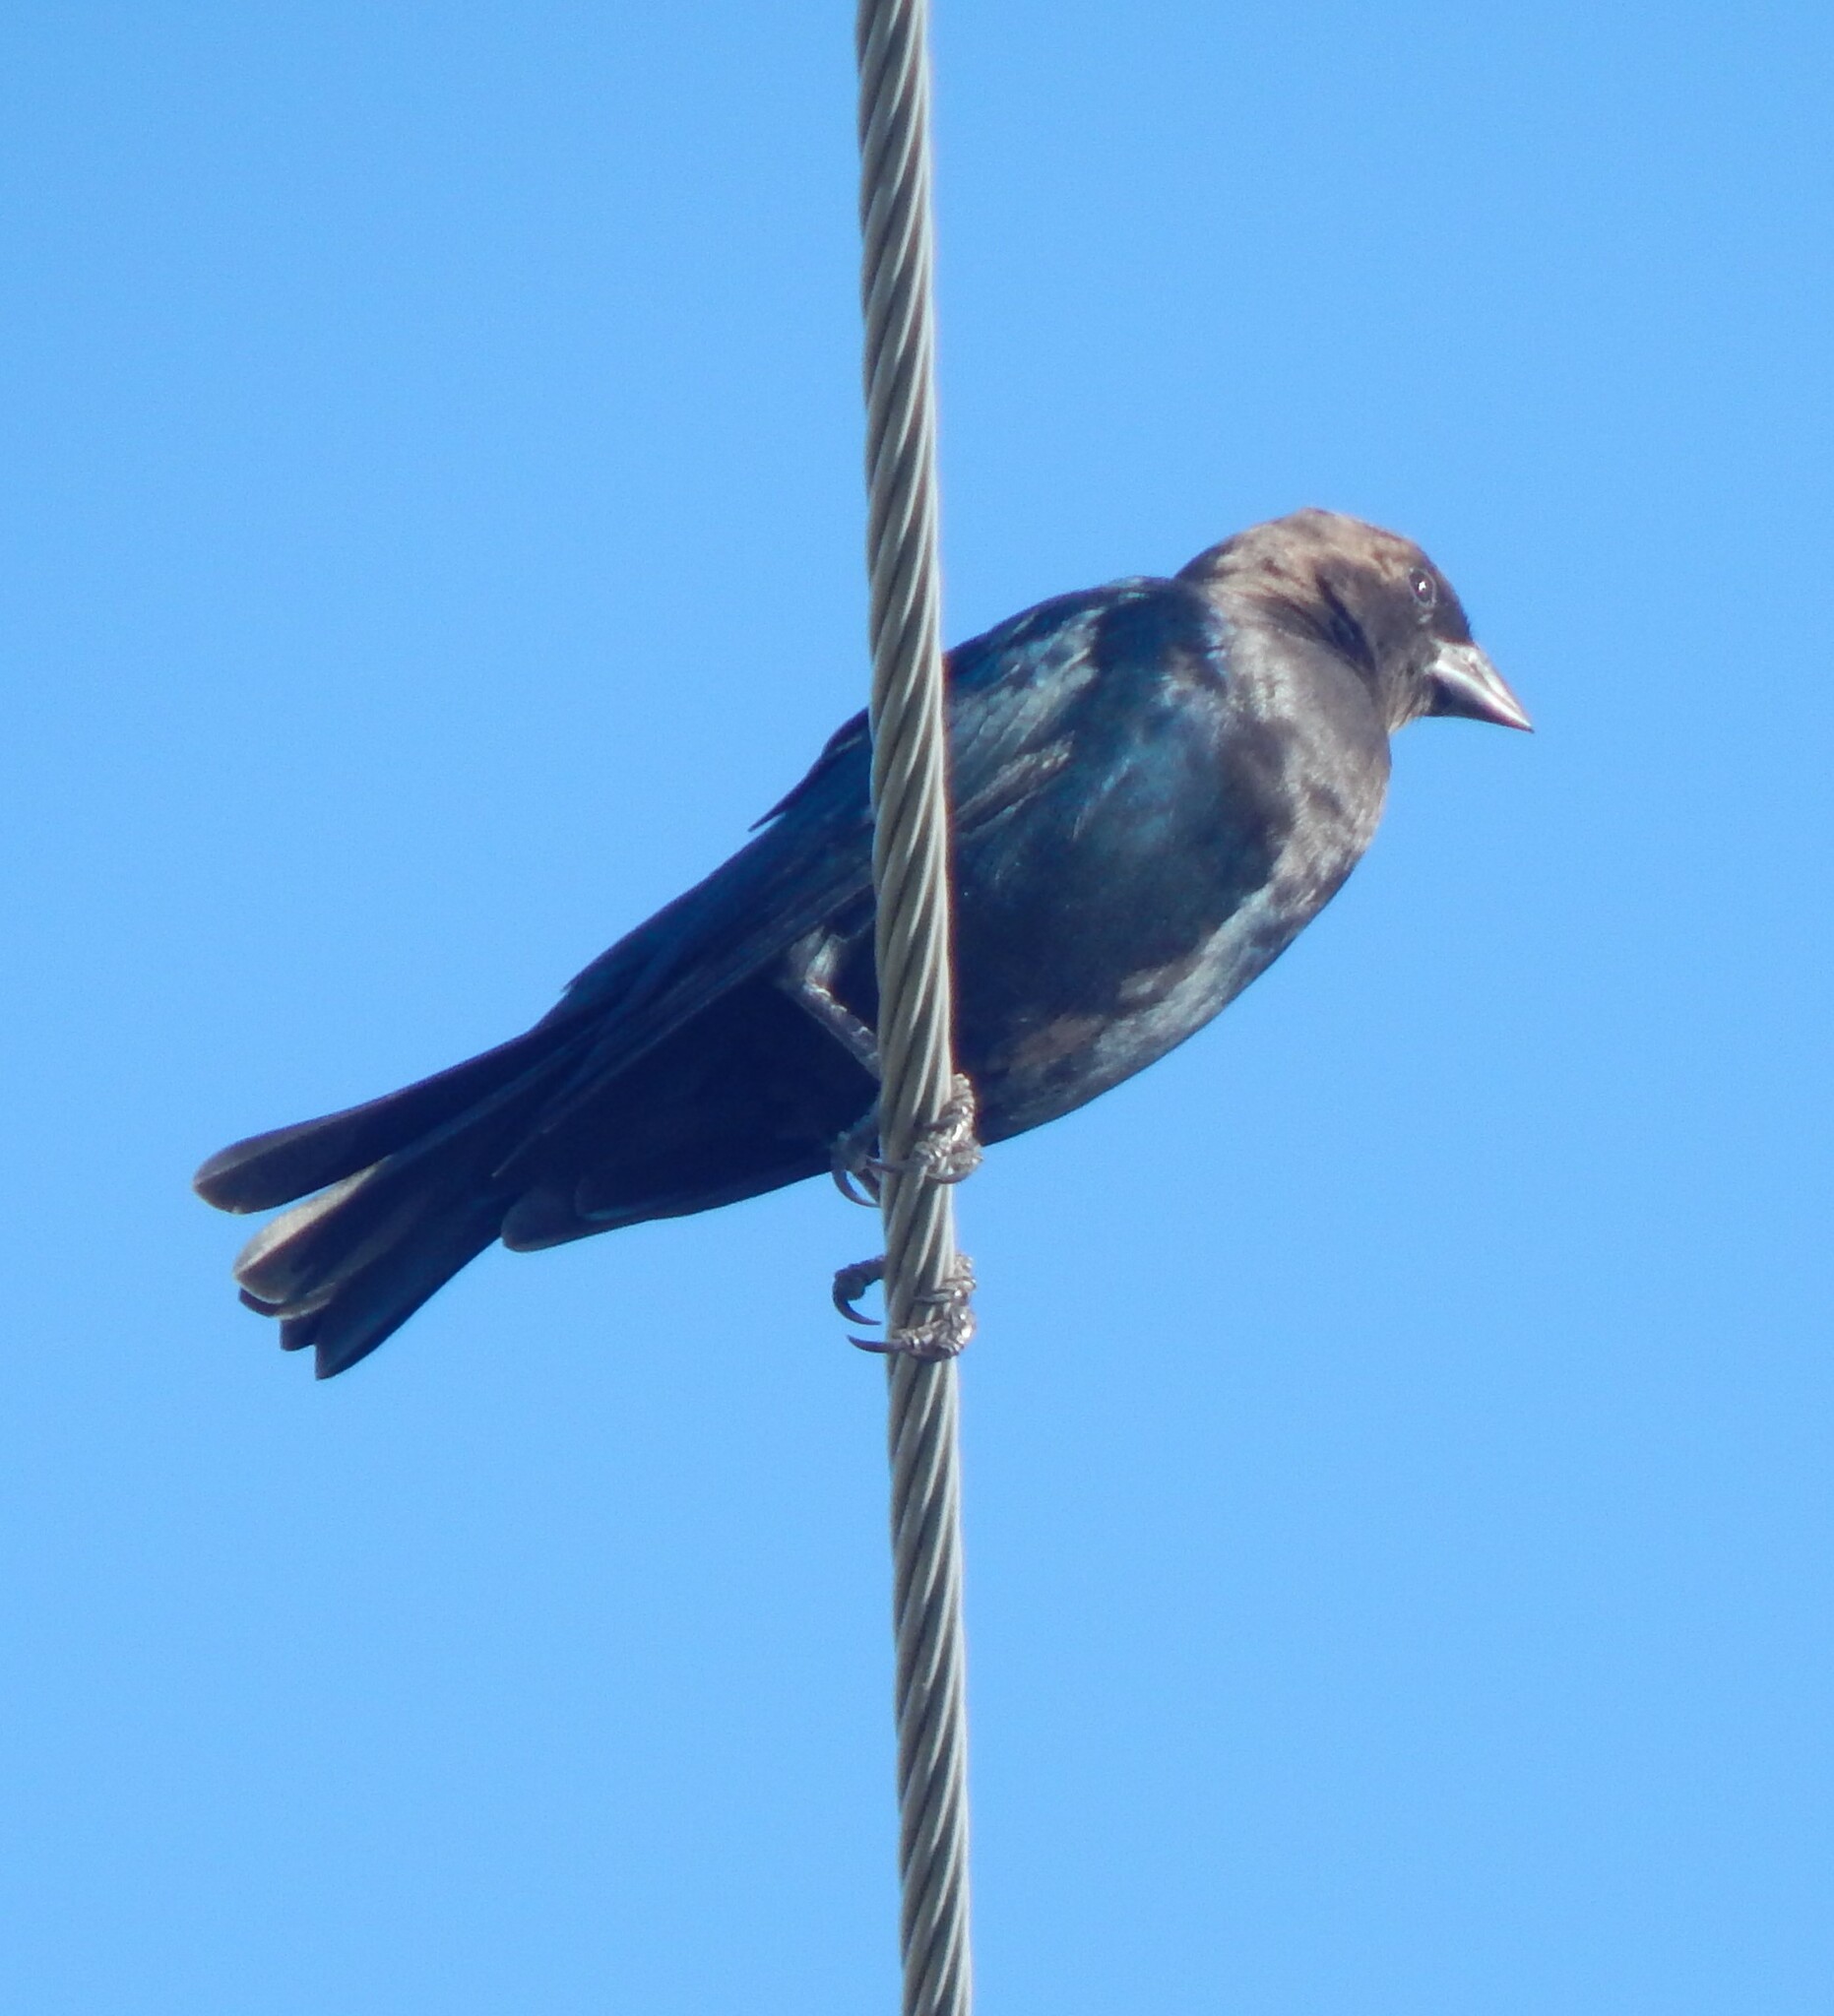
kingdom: Animalia
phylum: Chordata
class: Aves
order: Passeriformes
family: Icteridae
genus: Molothrus
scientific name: Molothrus ater
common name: Brown-headed cowbird
